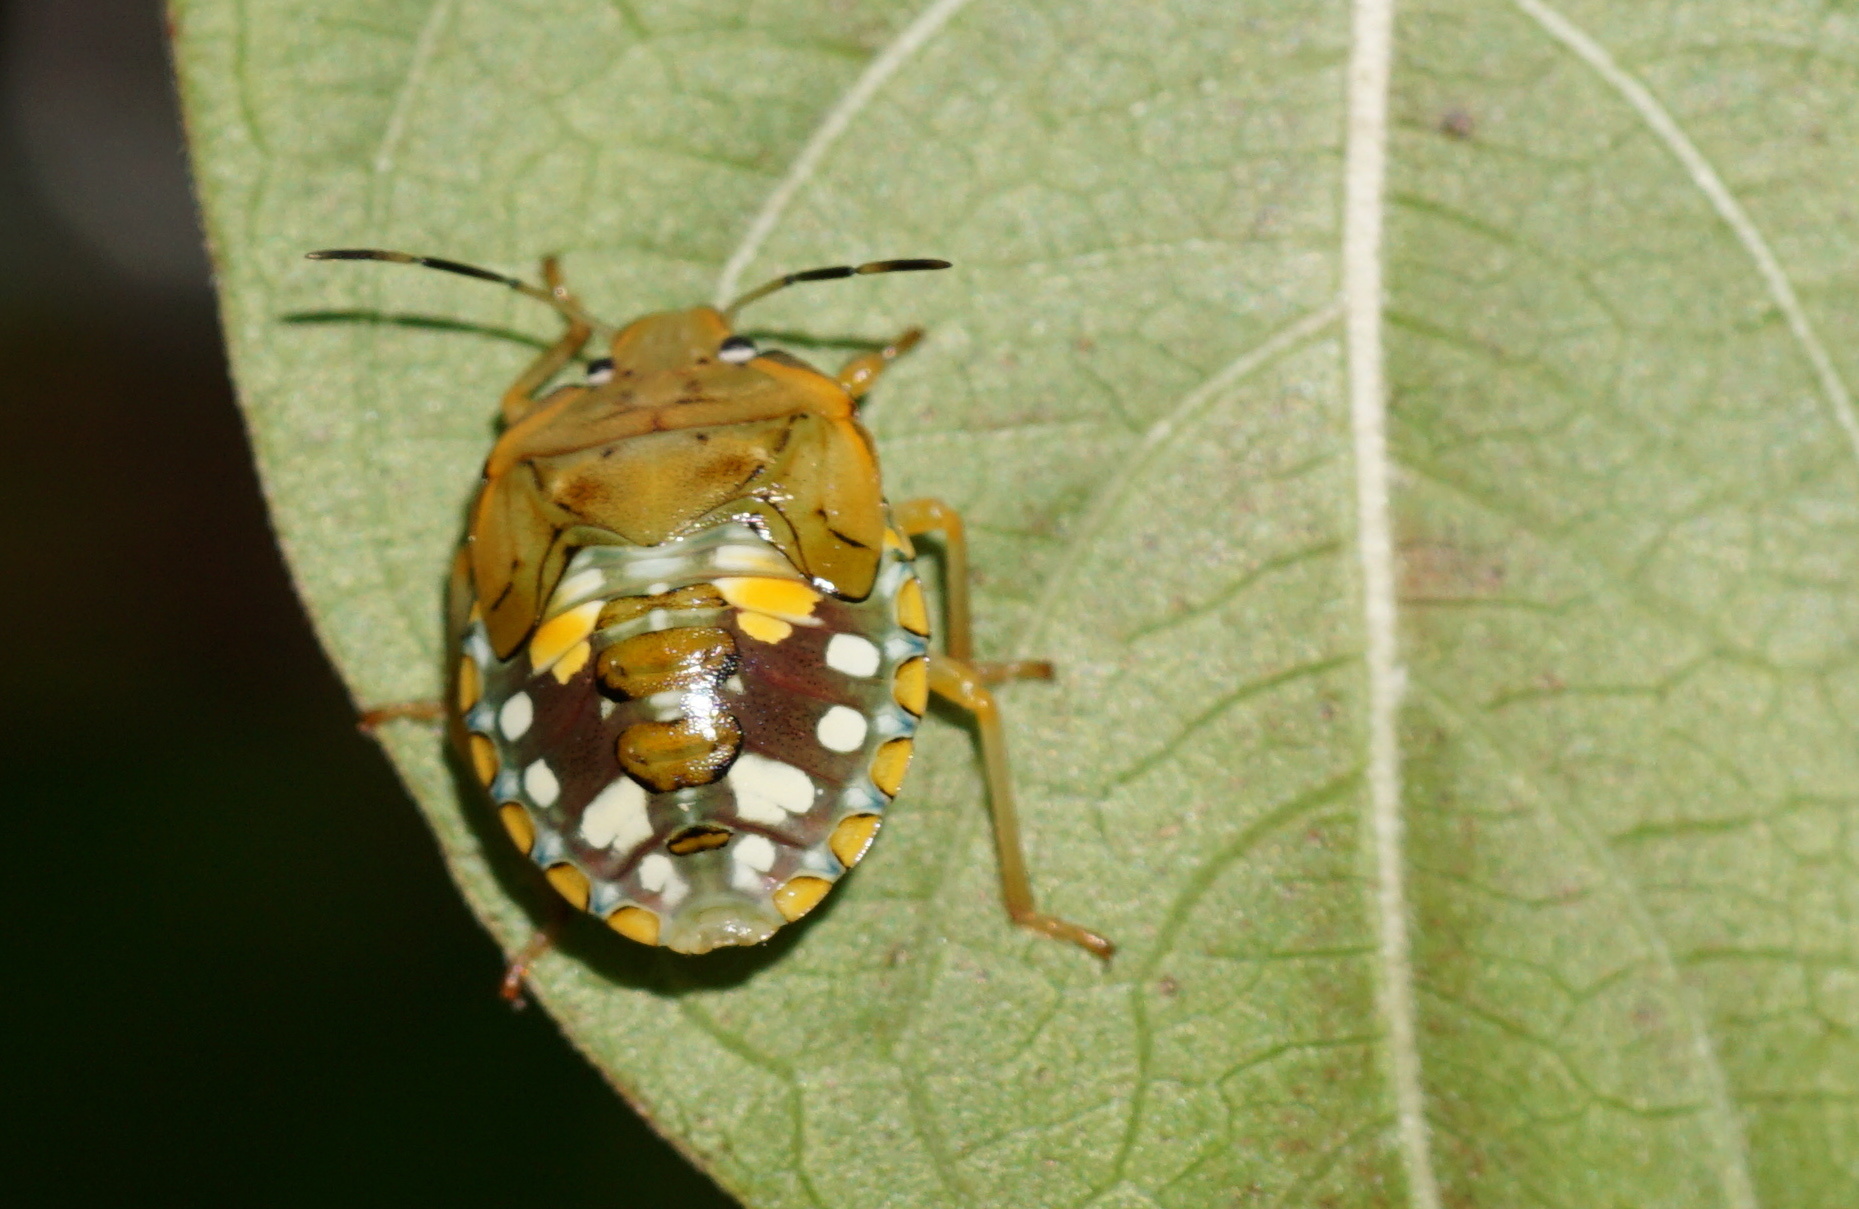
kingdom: Animalia
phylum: Arthropoda
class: Insecta
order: Hemiptera
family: Pentatomidae
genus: Acrosternum
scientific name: Acrosternum marginatum
